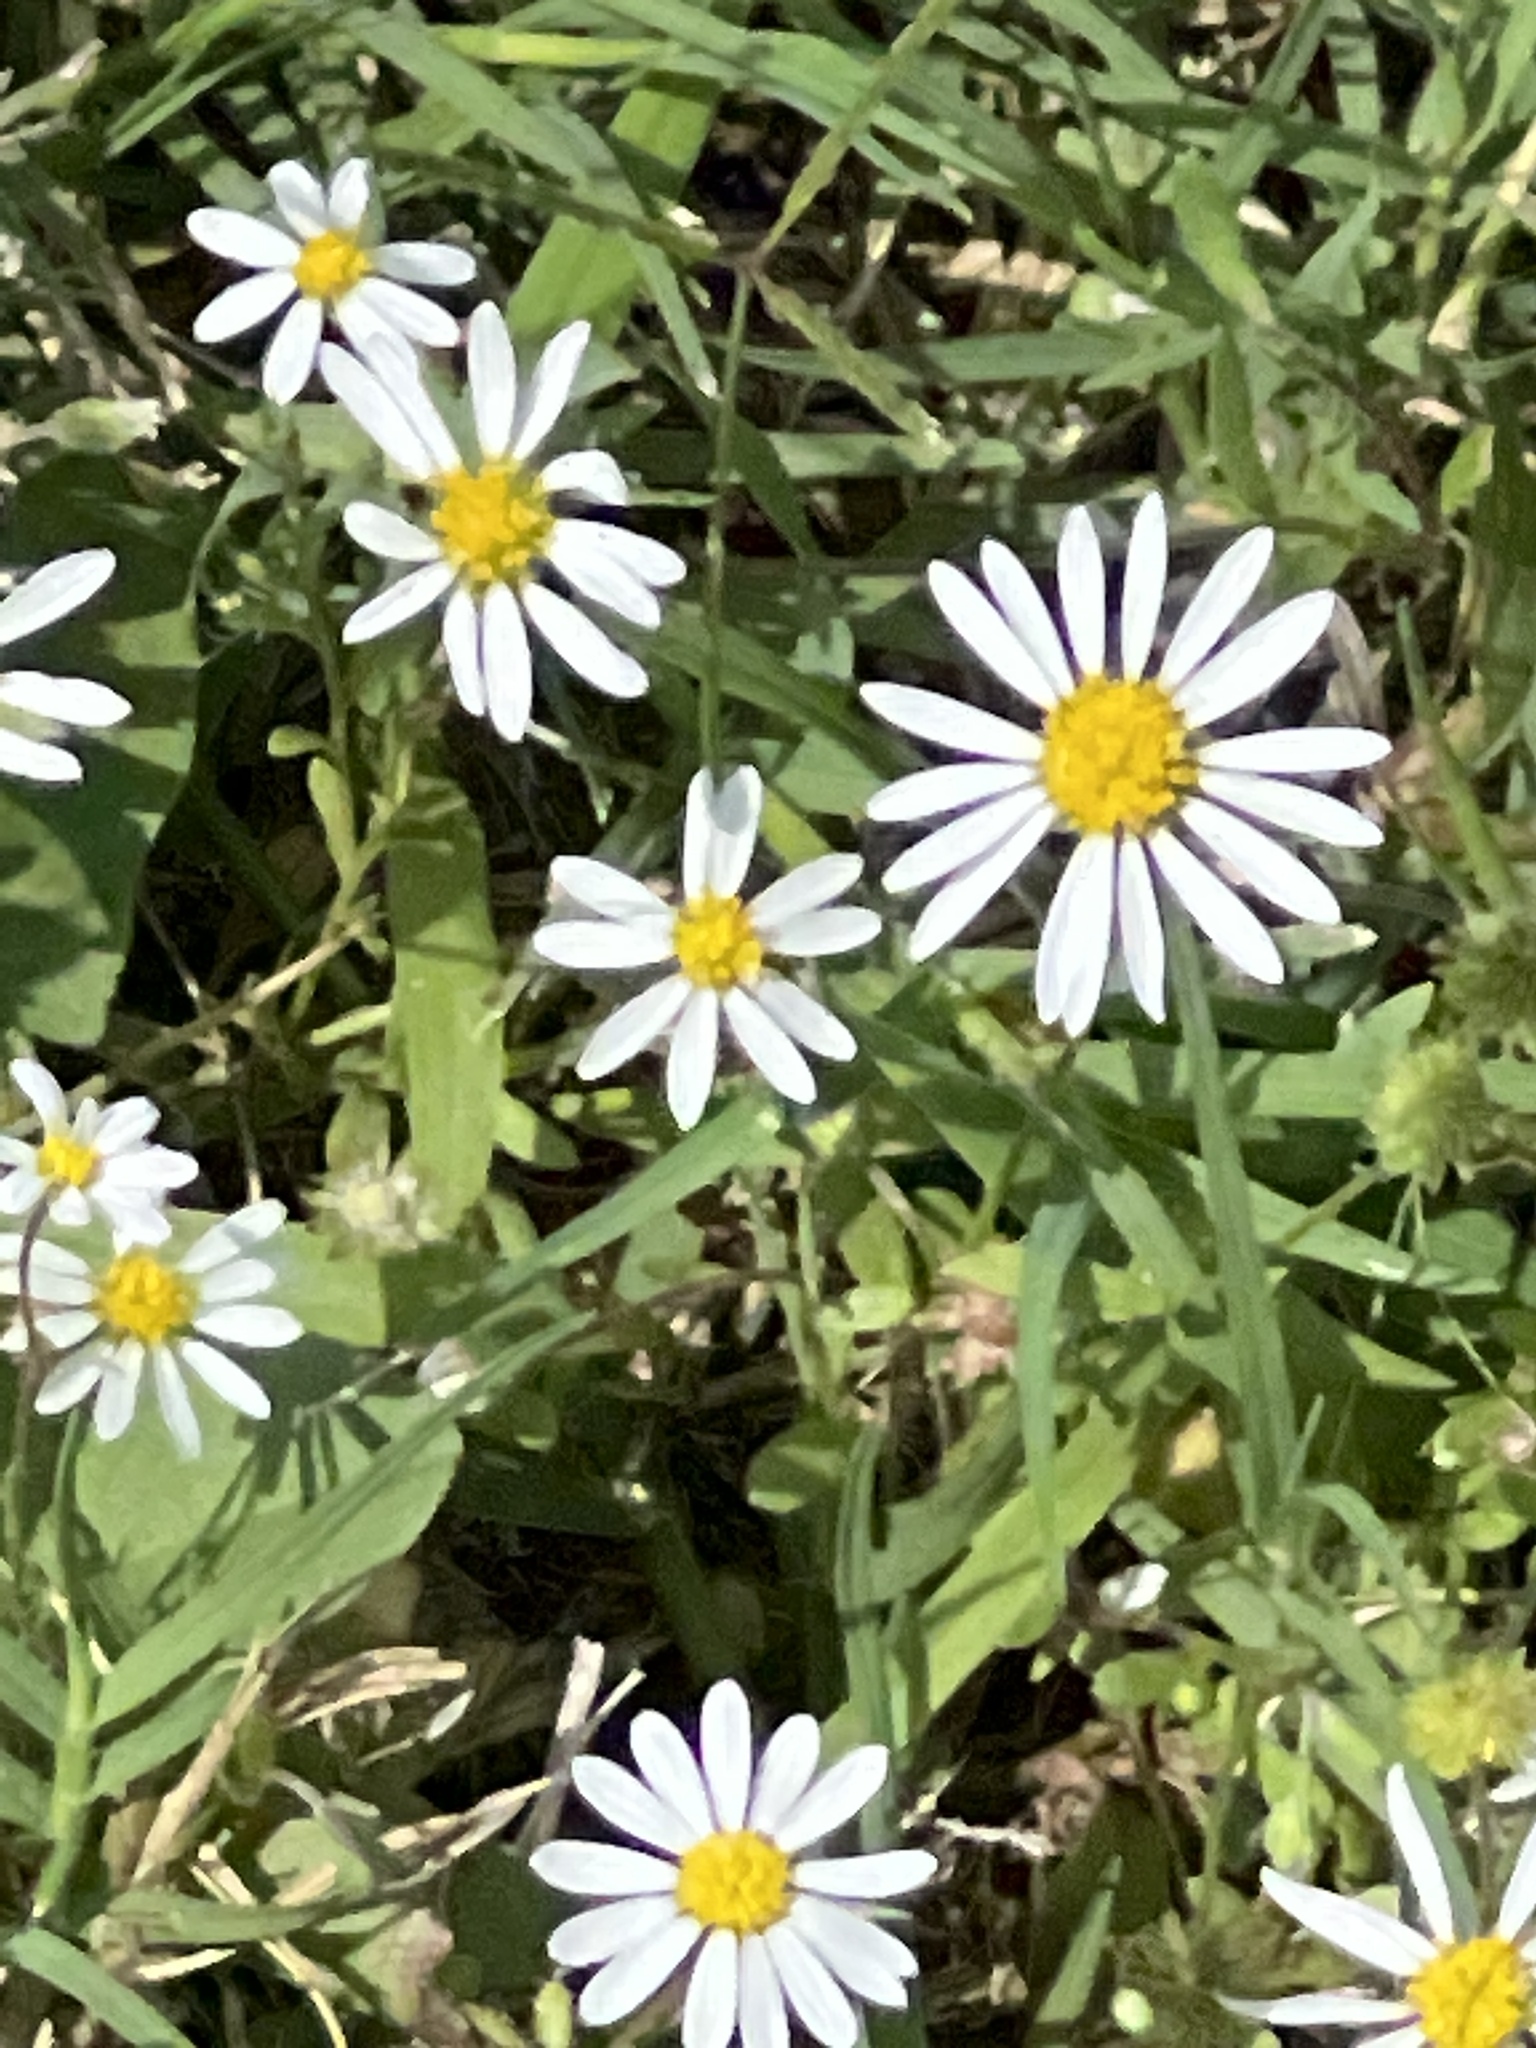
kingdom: Plantae
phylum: Tracheophyta
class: Magnoliopsida
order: Asterales
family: Asteraceae
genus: Aphanostephus
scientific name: Aphanostephus ramosissimus
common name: Plains lazy daisy
